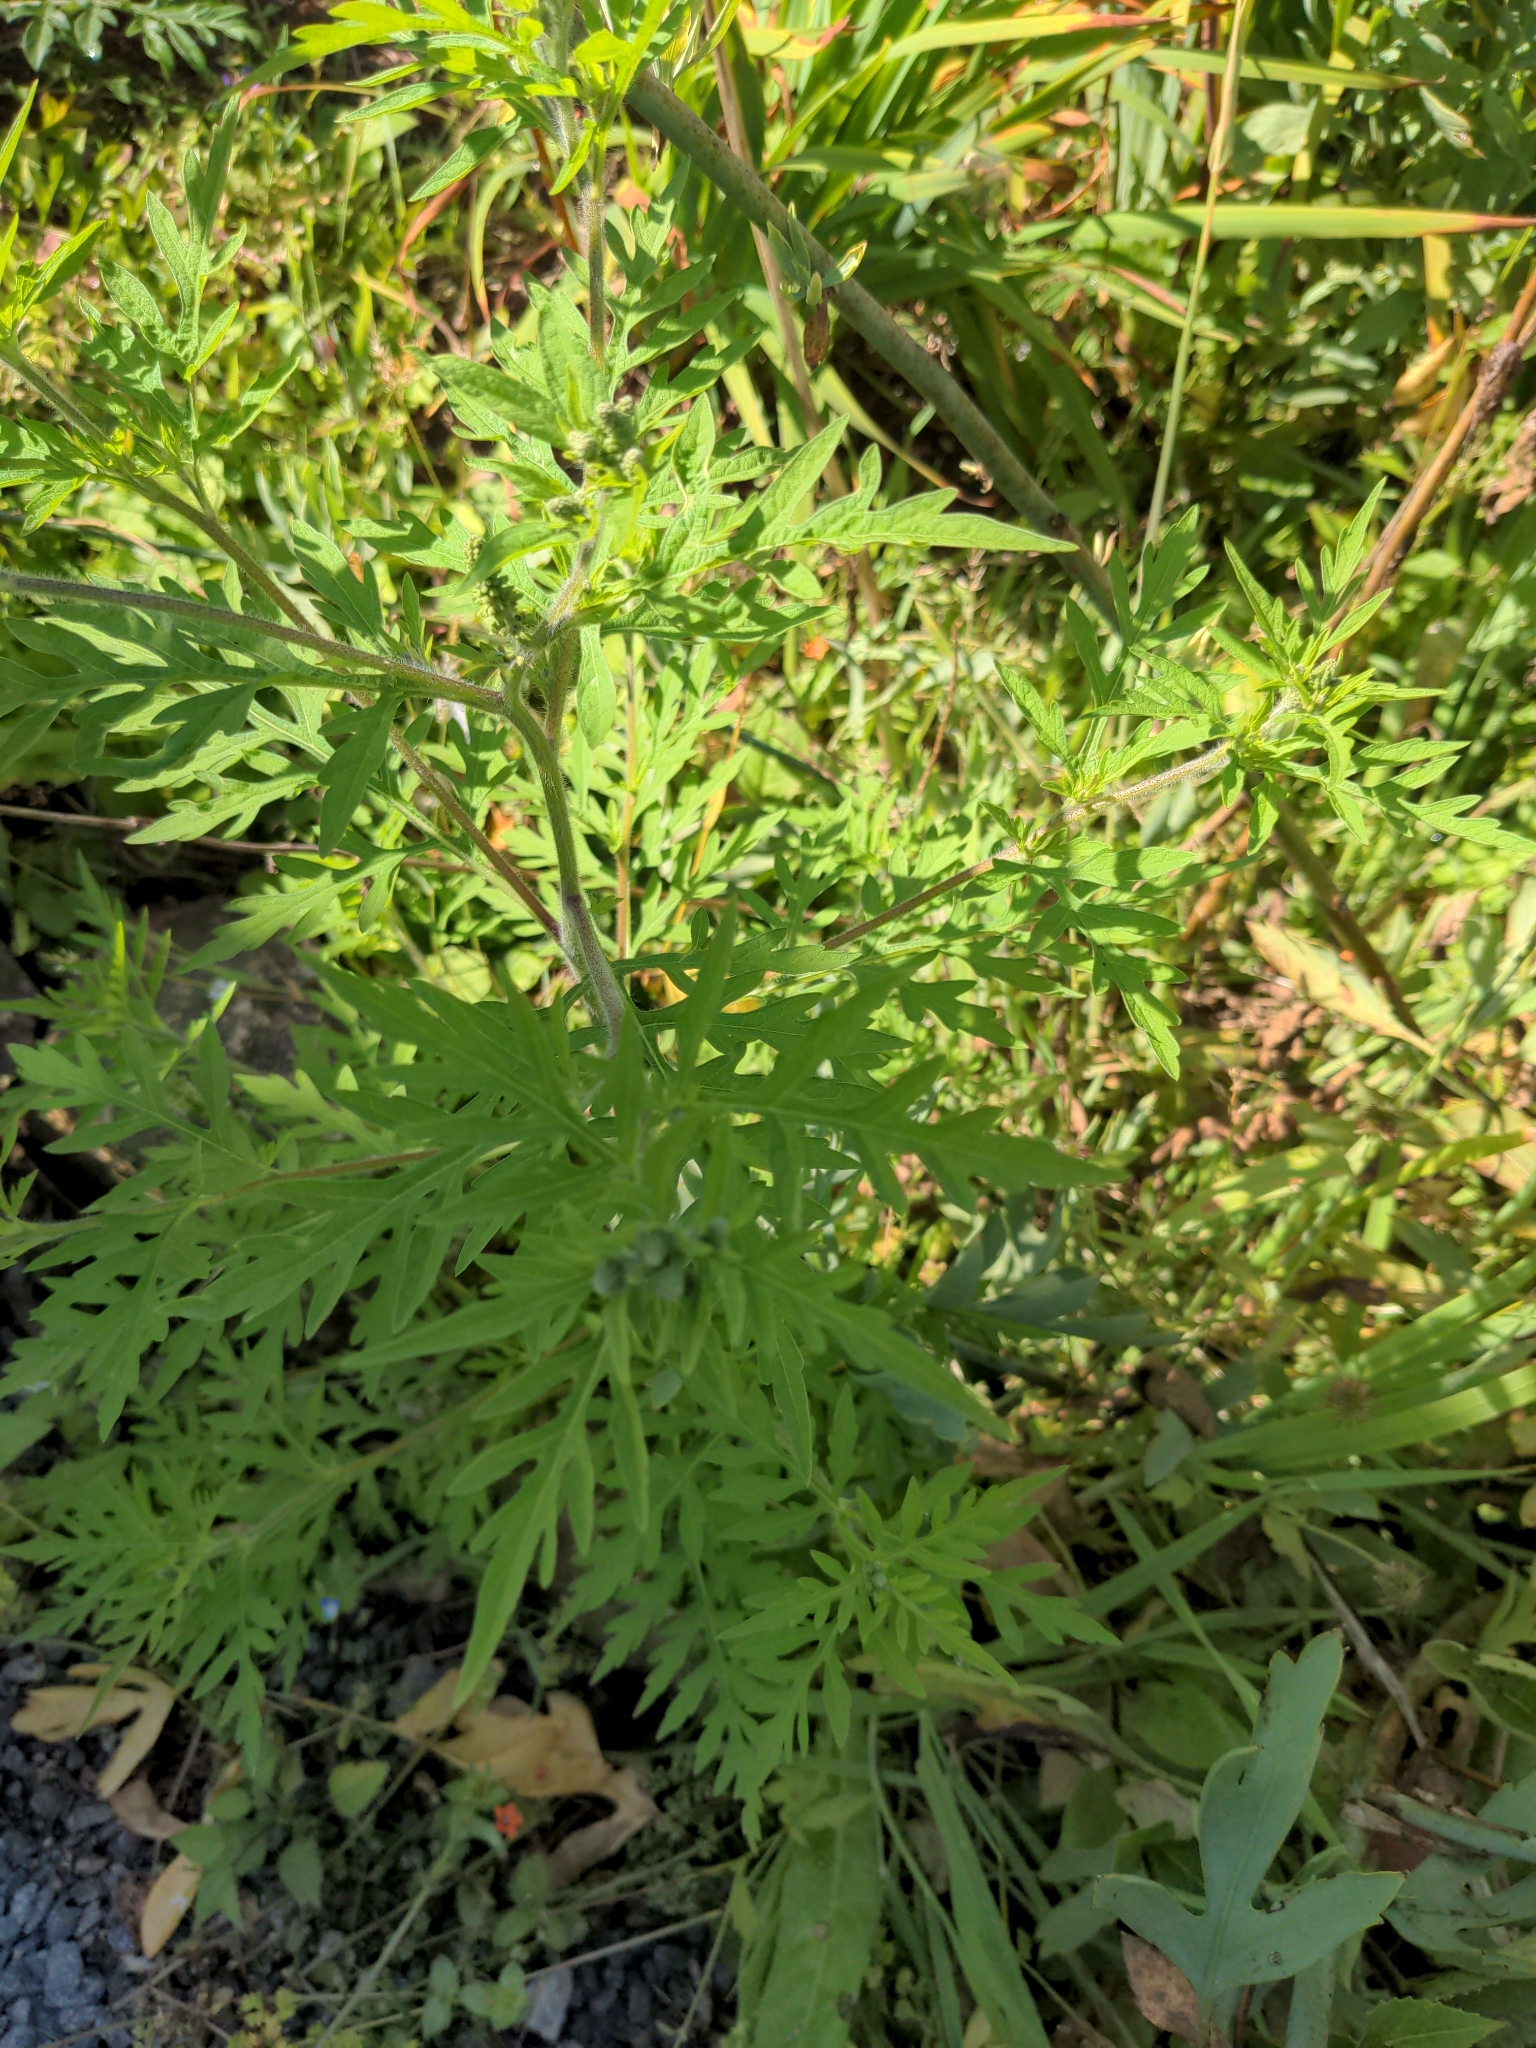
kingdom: Plantae
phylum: Tracheophyta
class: Magnoliopsida
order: Asterales
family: Asteraceae
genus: Ambrosia
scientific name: Ambrosia artemisiifolia
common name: Annual ragweed
